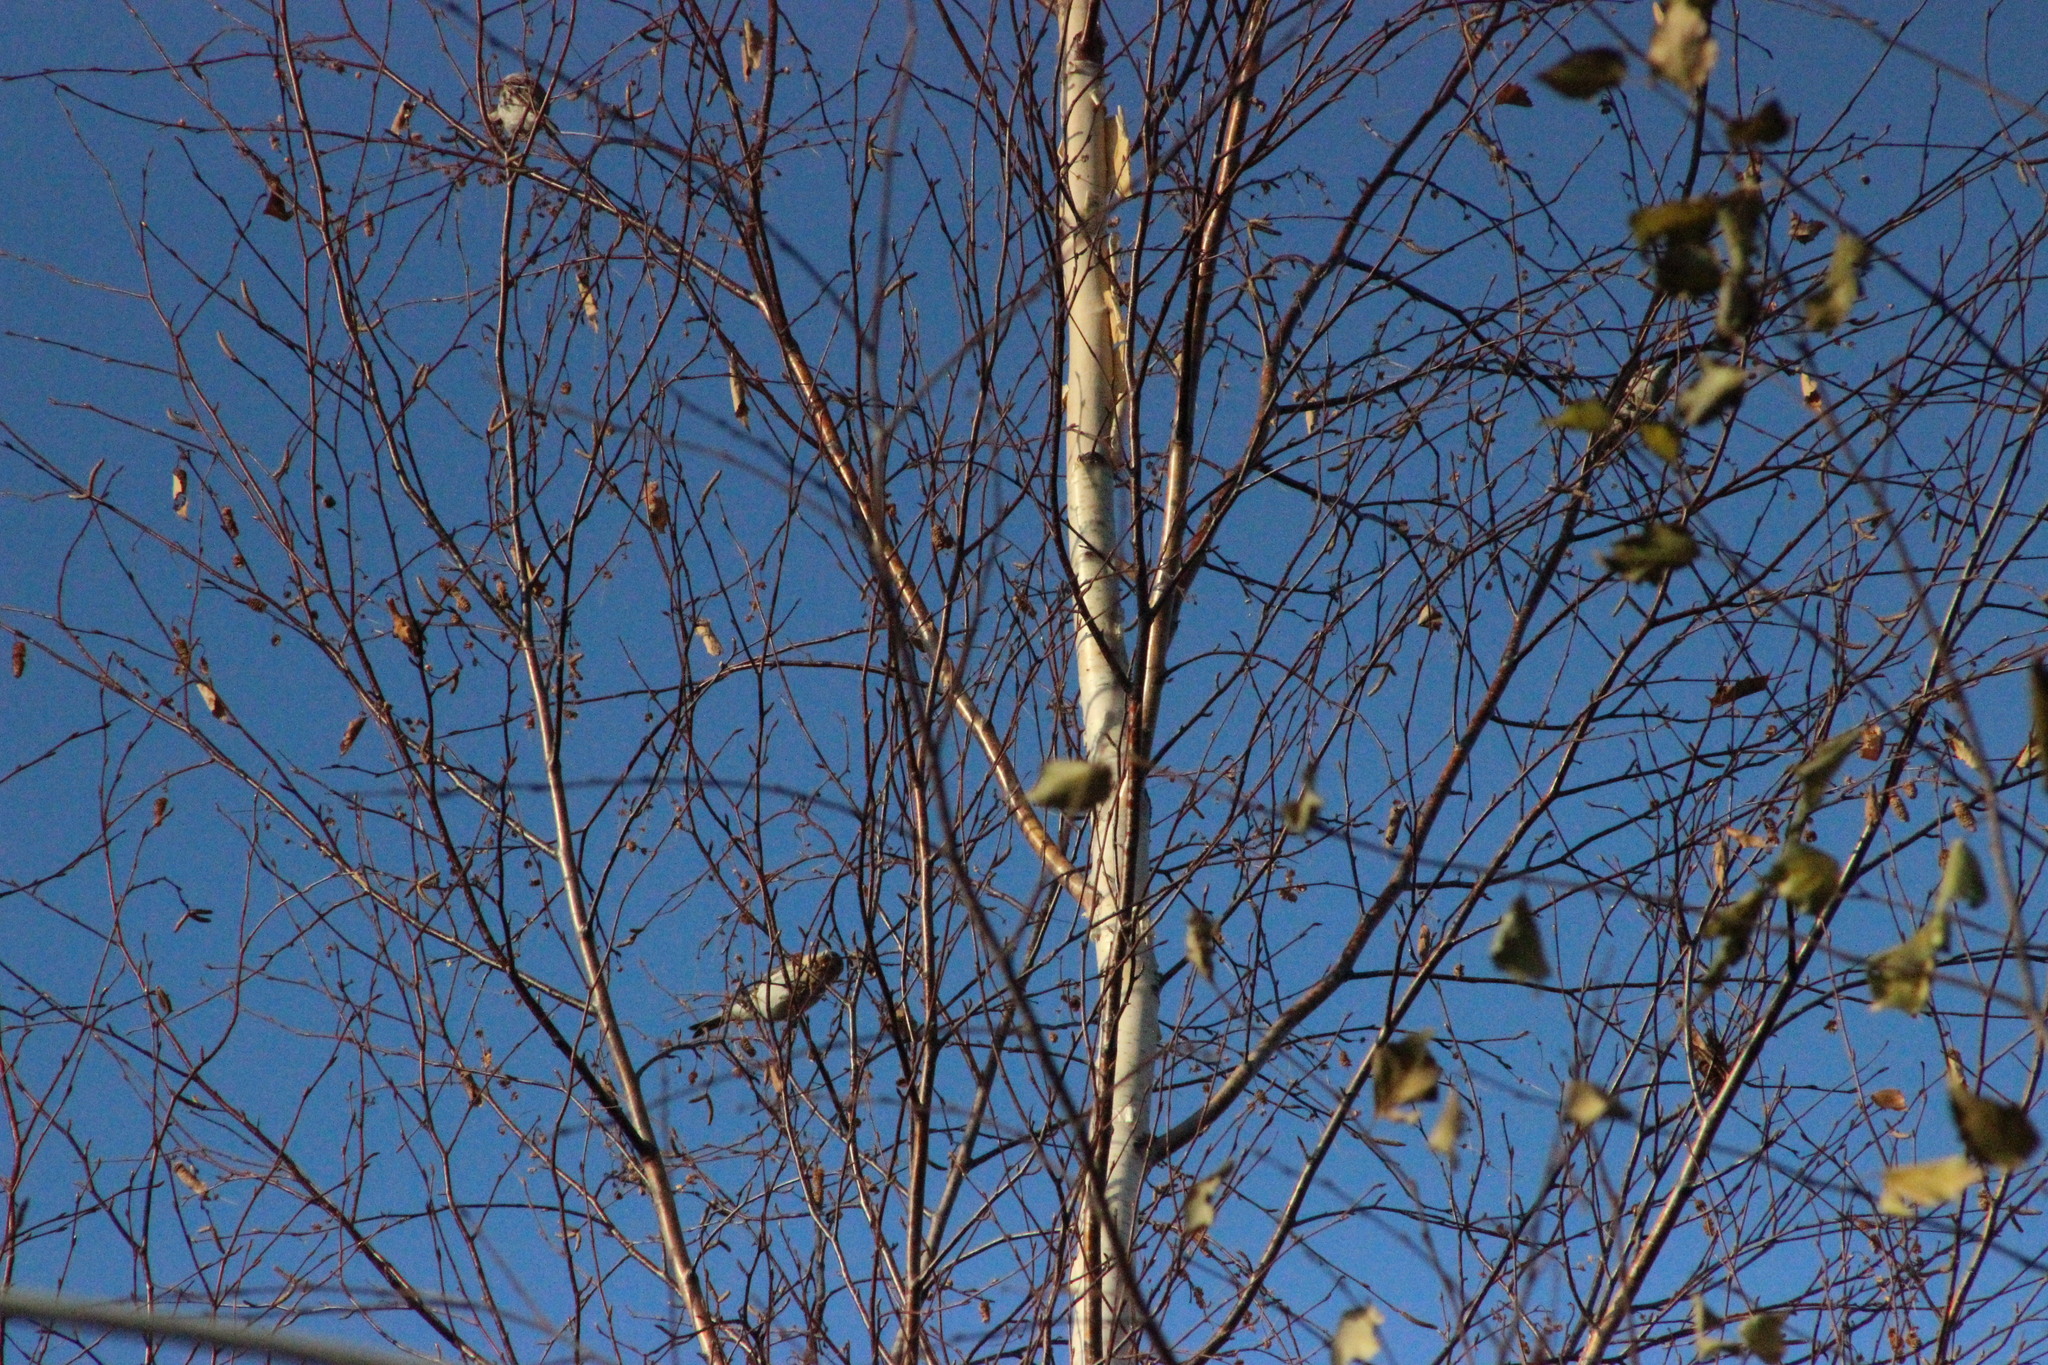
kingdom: Animalia
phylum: Chordata
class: Aves
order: Passeriformes
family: Fringillidae
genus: Acanthis
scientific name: Acanthis flammea
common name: Common redpoll
